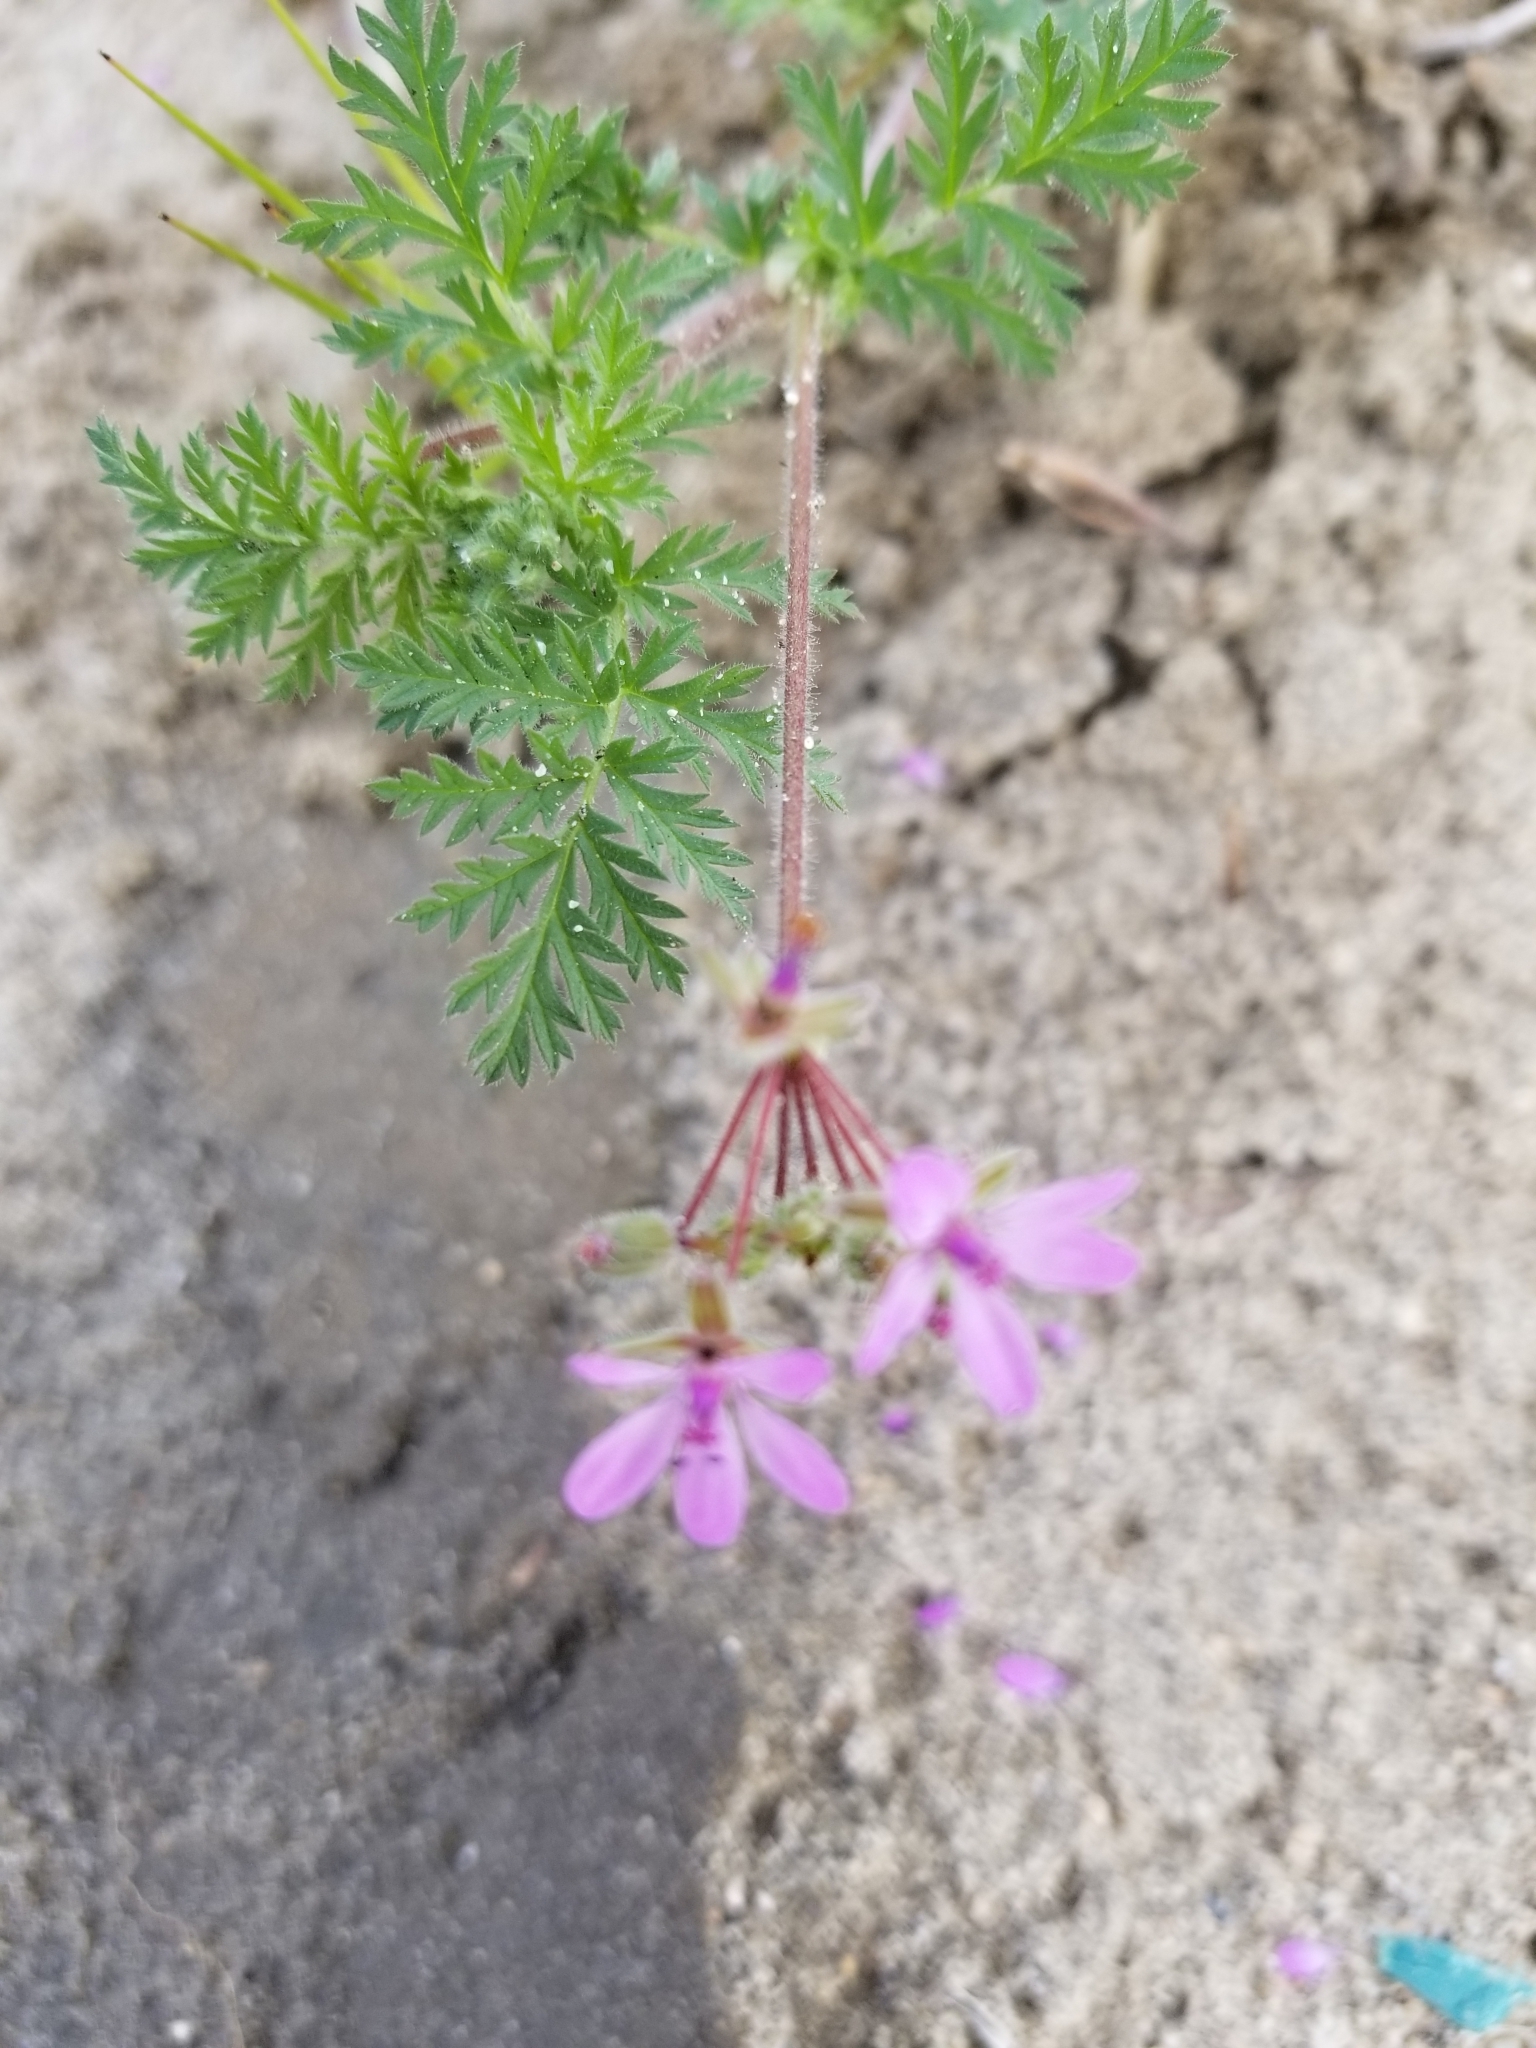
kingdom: Plantae
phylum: Tracheophyta
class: Magnoliopsida
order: Geraniales
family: Geraniaceae
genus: Erodium
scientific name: Erodium cicutarium
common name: Common stork's-bill
